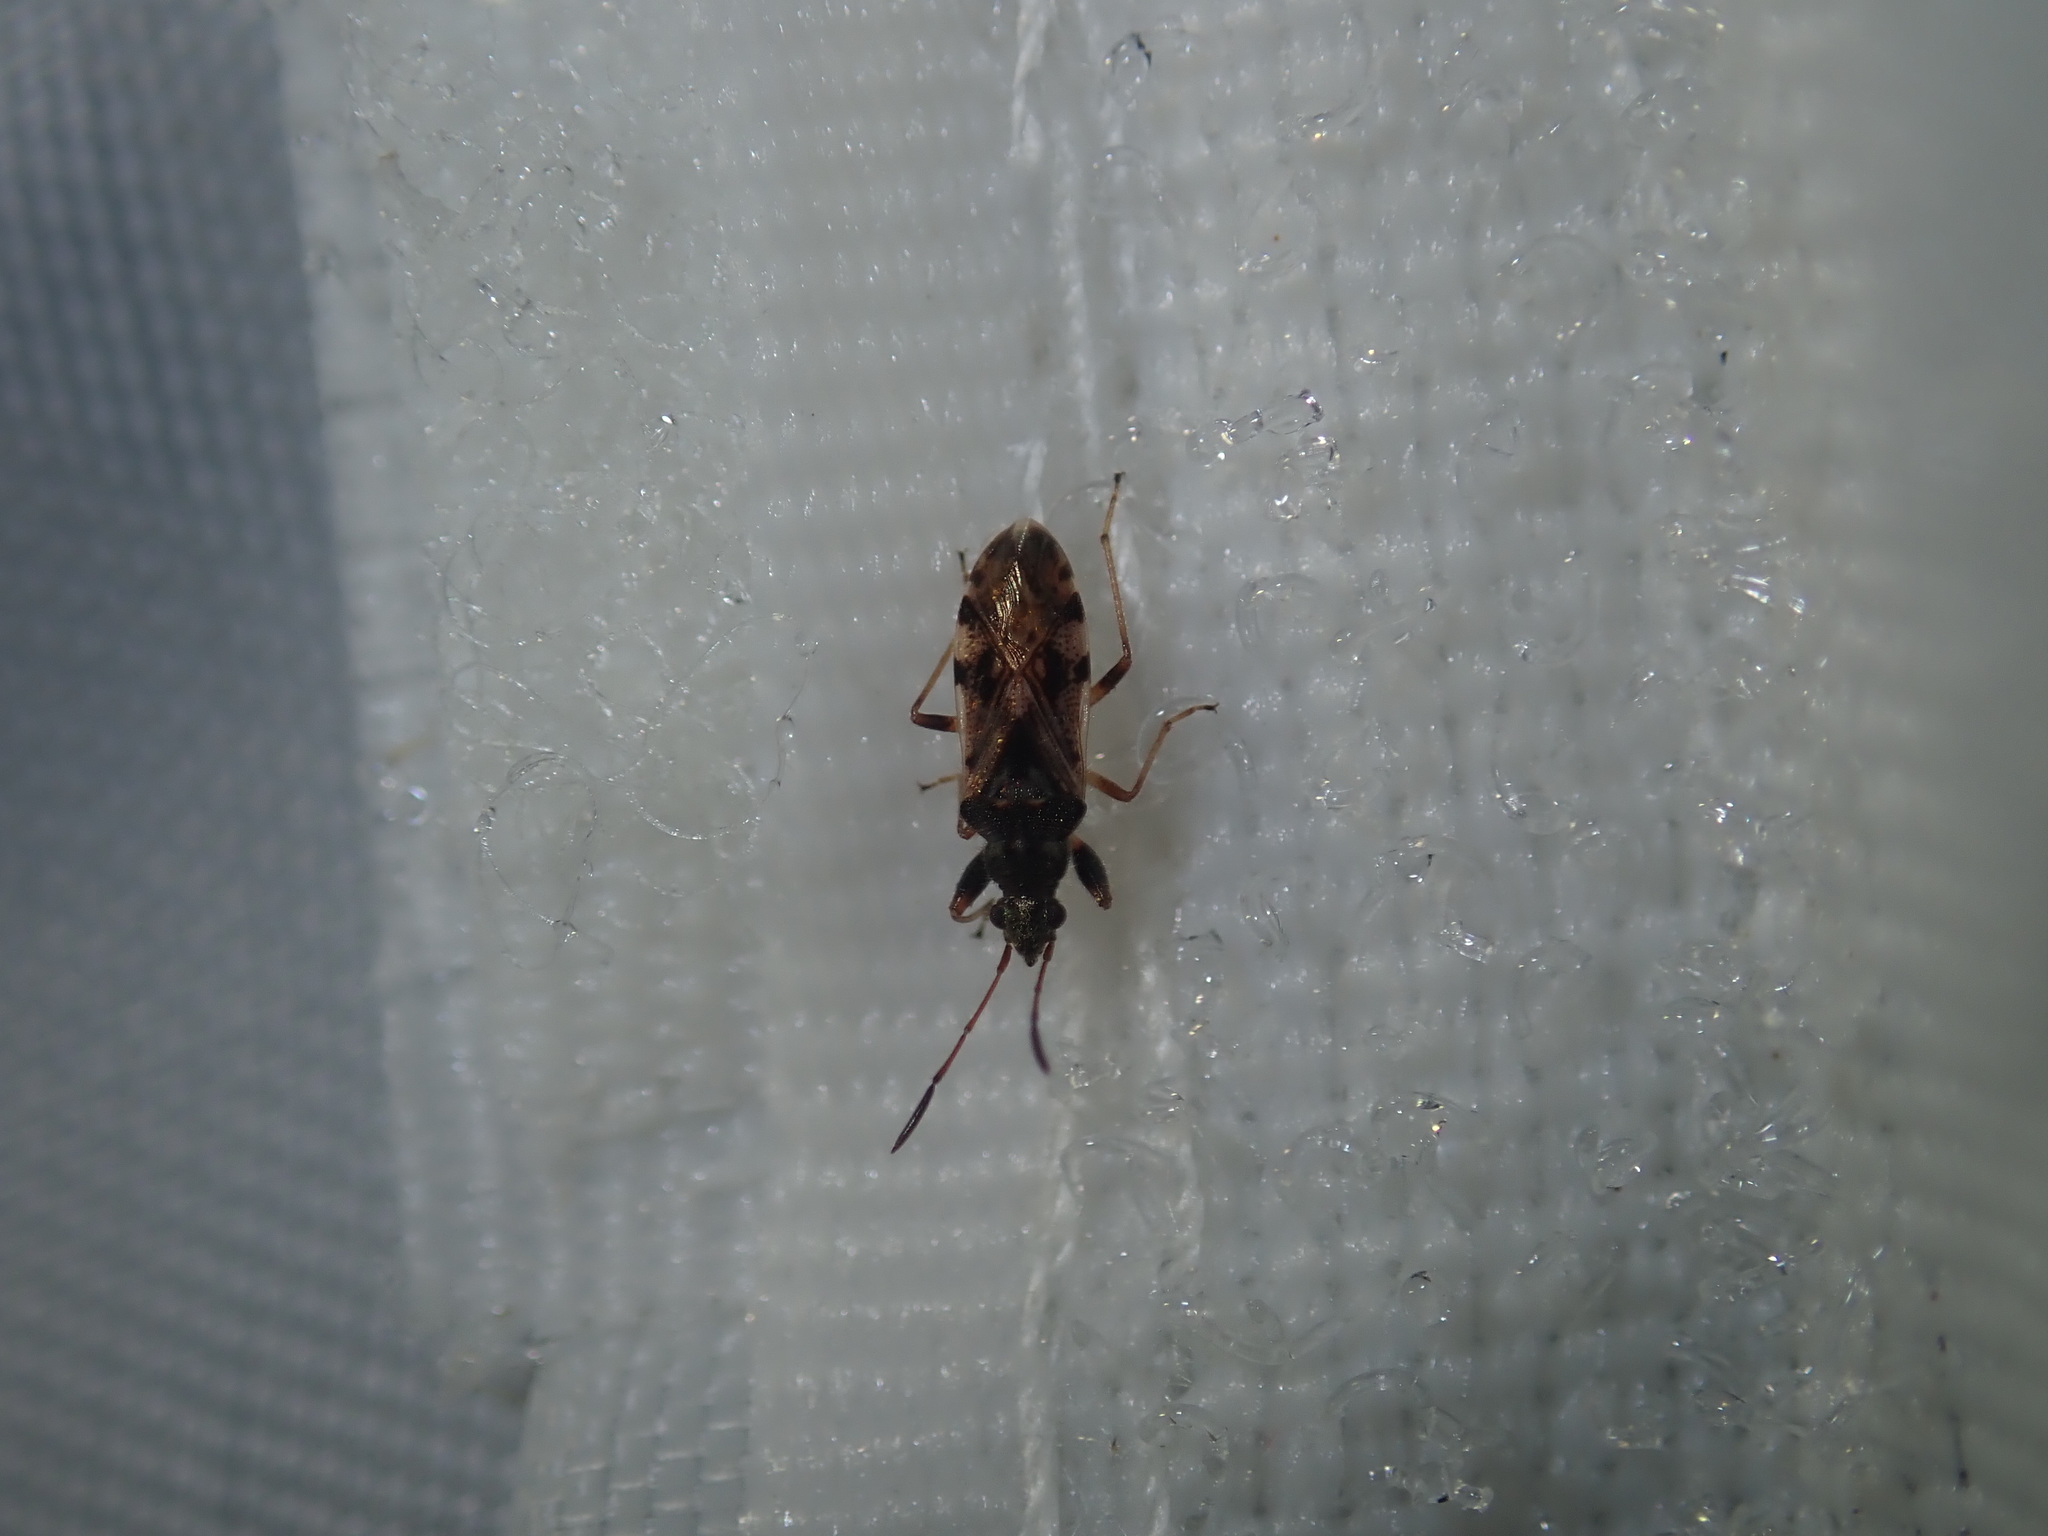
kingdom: Animalia
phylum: Arthropoda
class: Insecta
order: Hemiptera
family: Rhyparochromidae
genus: Remaudiereana
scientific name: Remaudiereana inornatus
